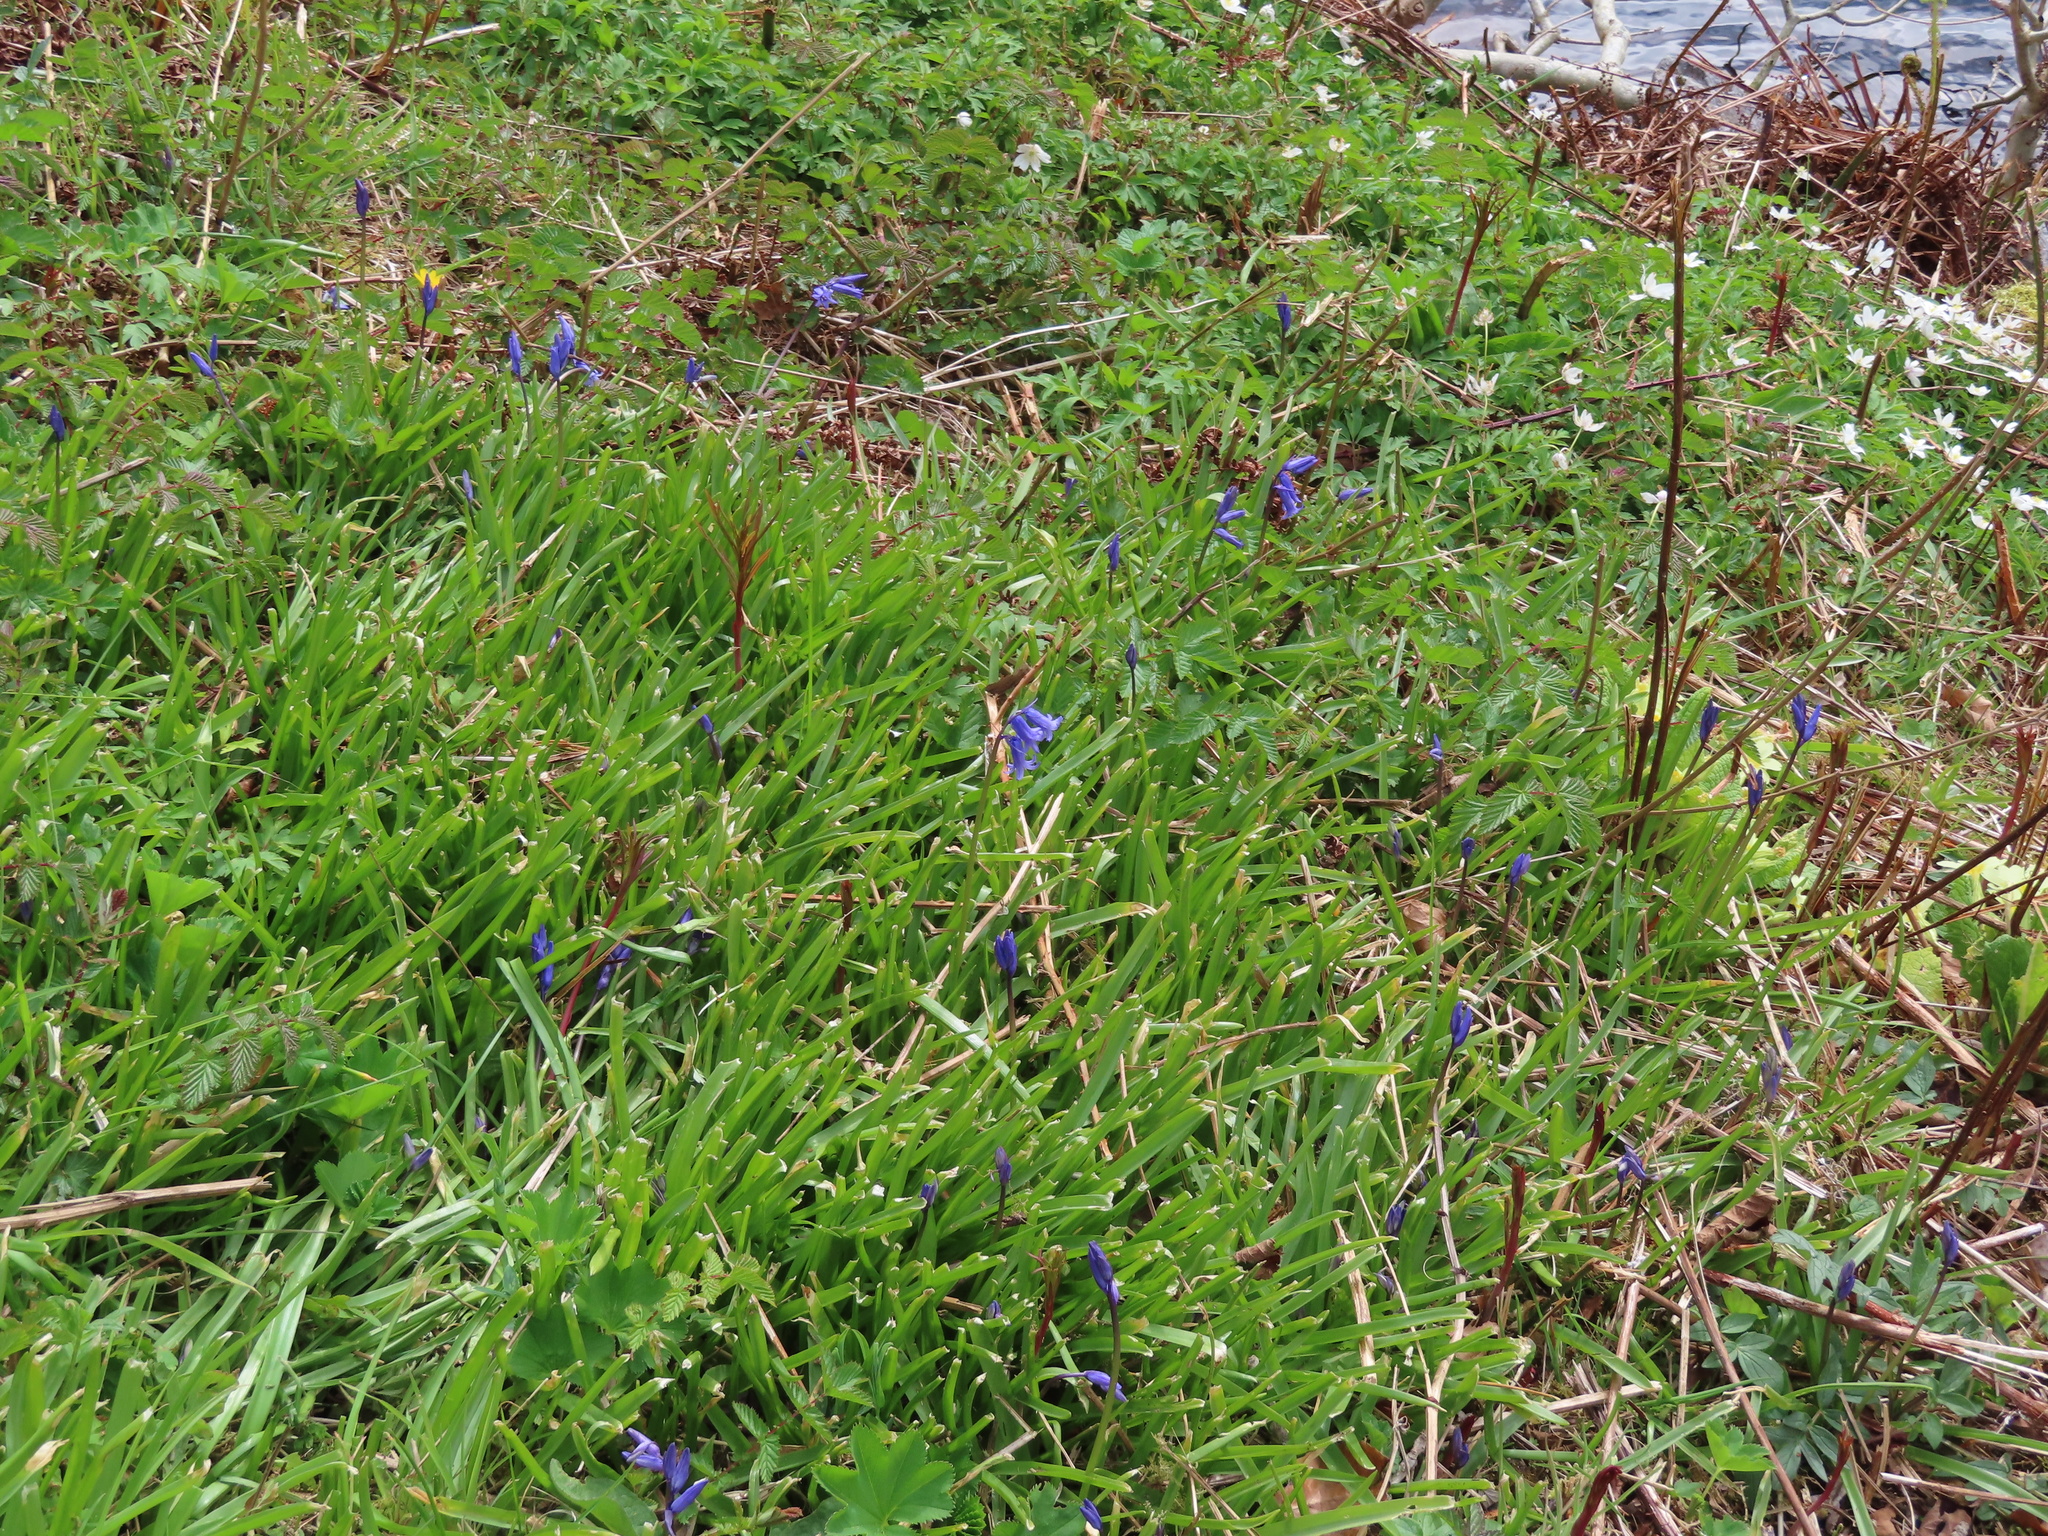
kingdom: Plantae
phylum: Tracheophyta
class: Liliopsida
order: Asparagales
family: Asparagaceae
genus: Hyacinthoides
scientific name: Hyacinthoides non-scripta
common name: Bluebell
